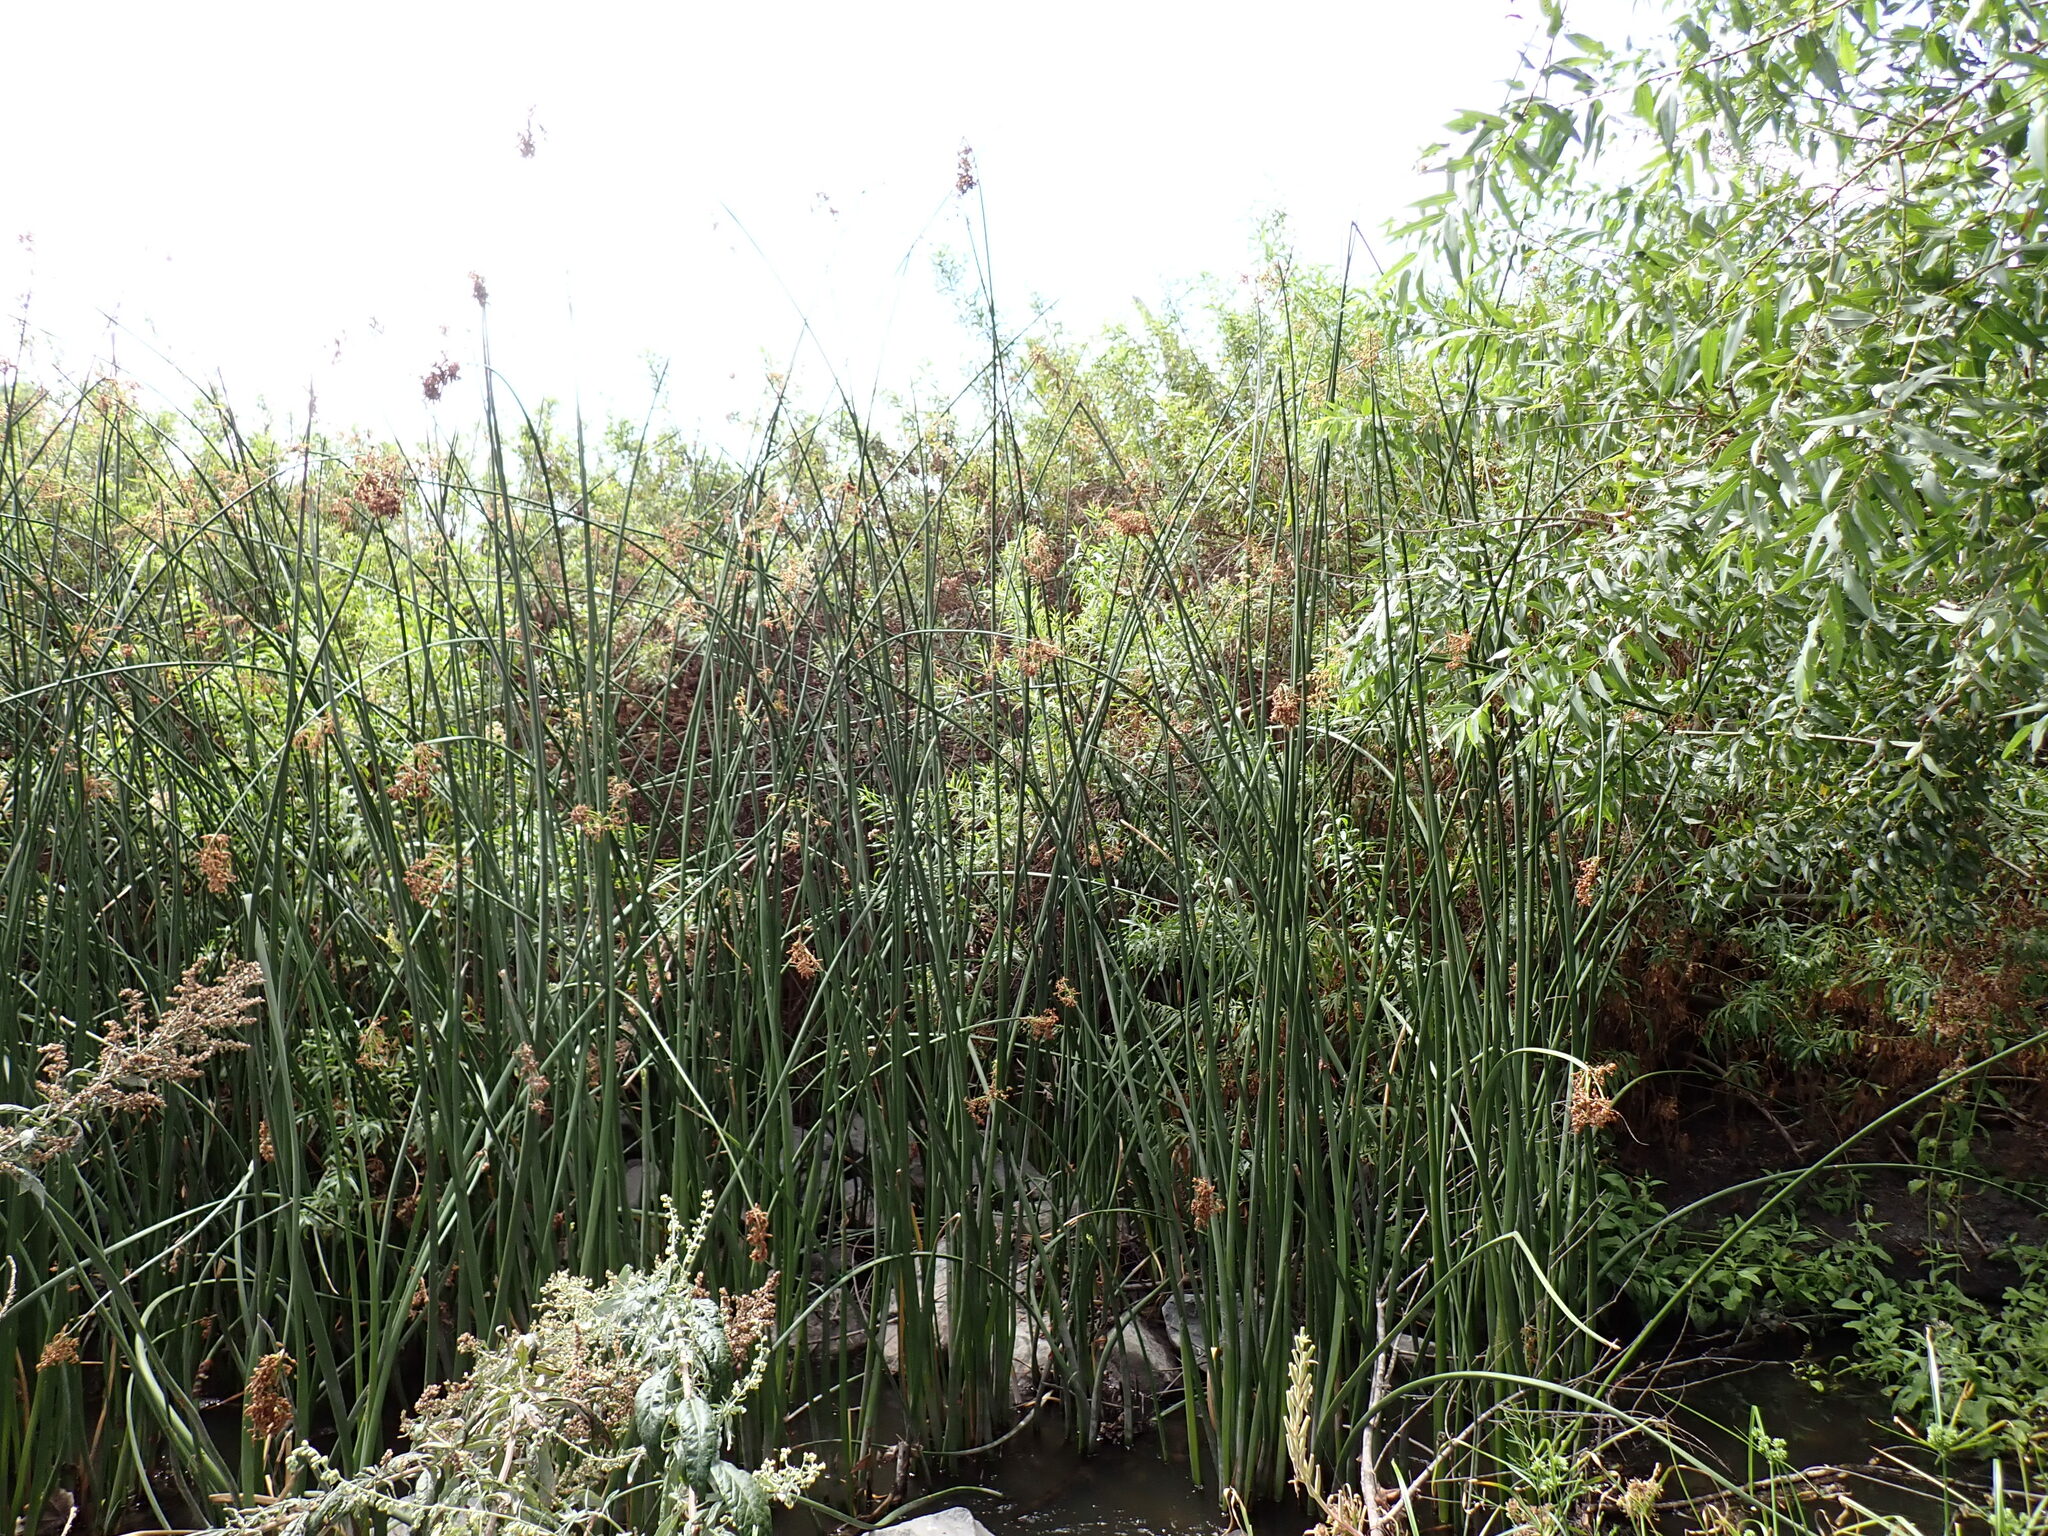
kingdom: Plantae
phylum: Tracheophyta
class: Liliopsida
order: Poales
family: Cyperaceae
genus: Schoenoplectus
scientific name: Schoenoplectus californicus
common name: California bulrush
